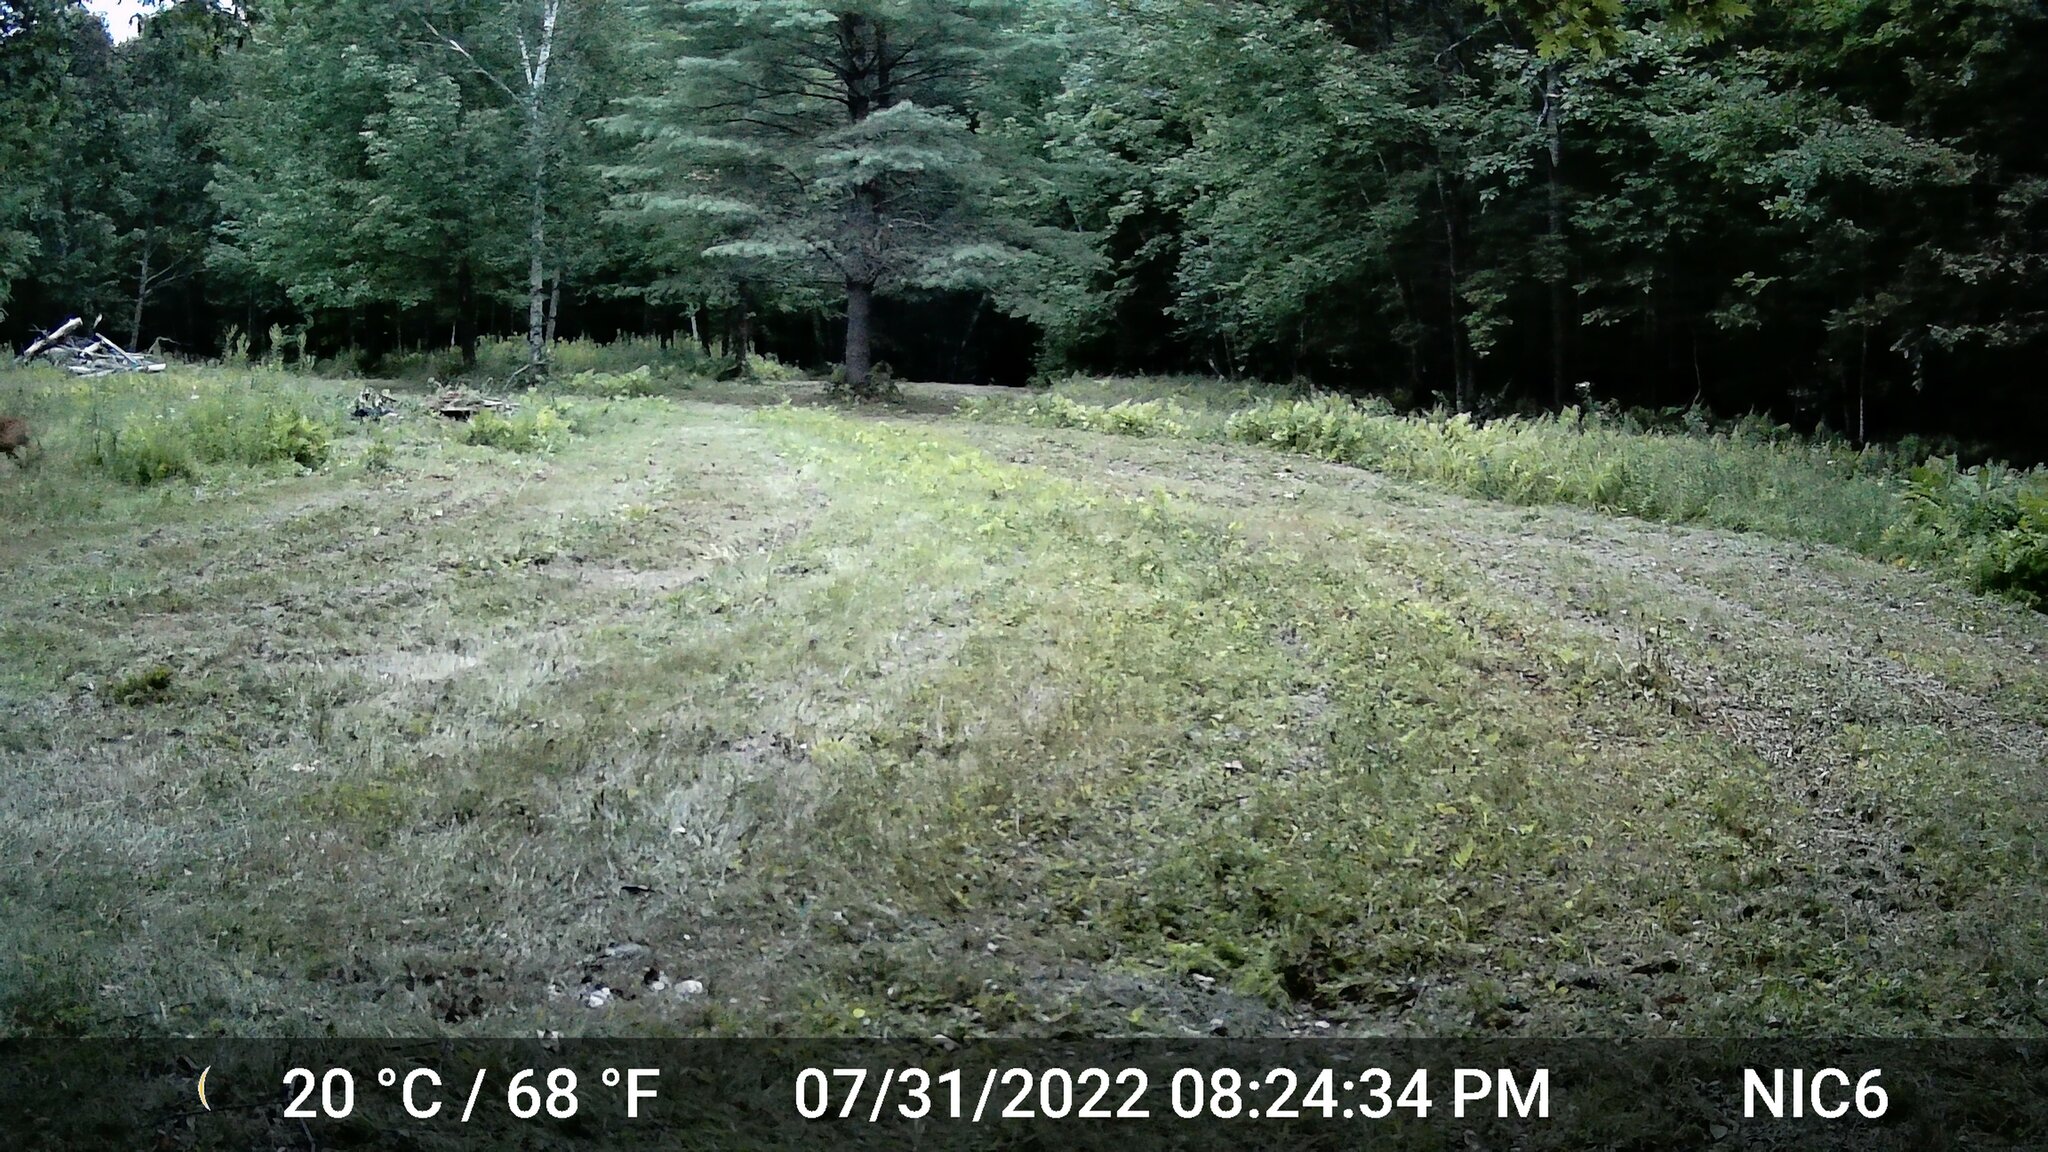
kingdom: Animalia
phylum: Chordata
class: Mammalia
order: Artiodactyla
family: Cervidae
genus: Odocoileus
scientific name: Odocoileus virginianus
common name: White-tailed deer
